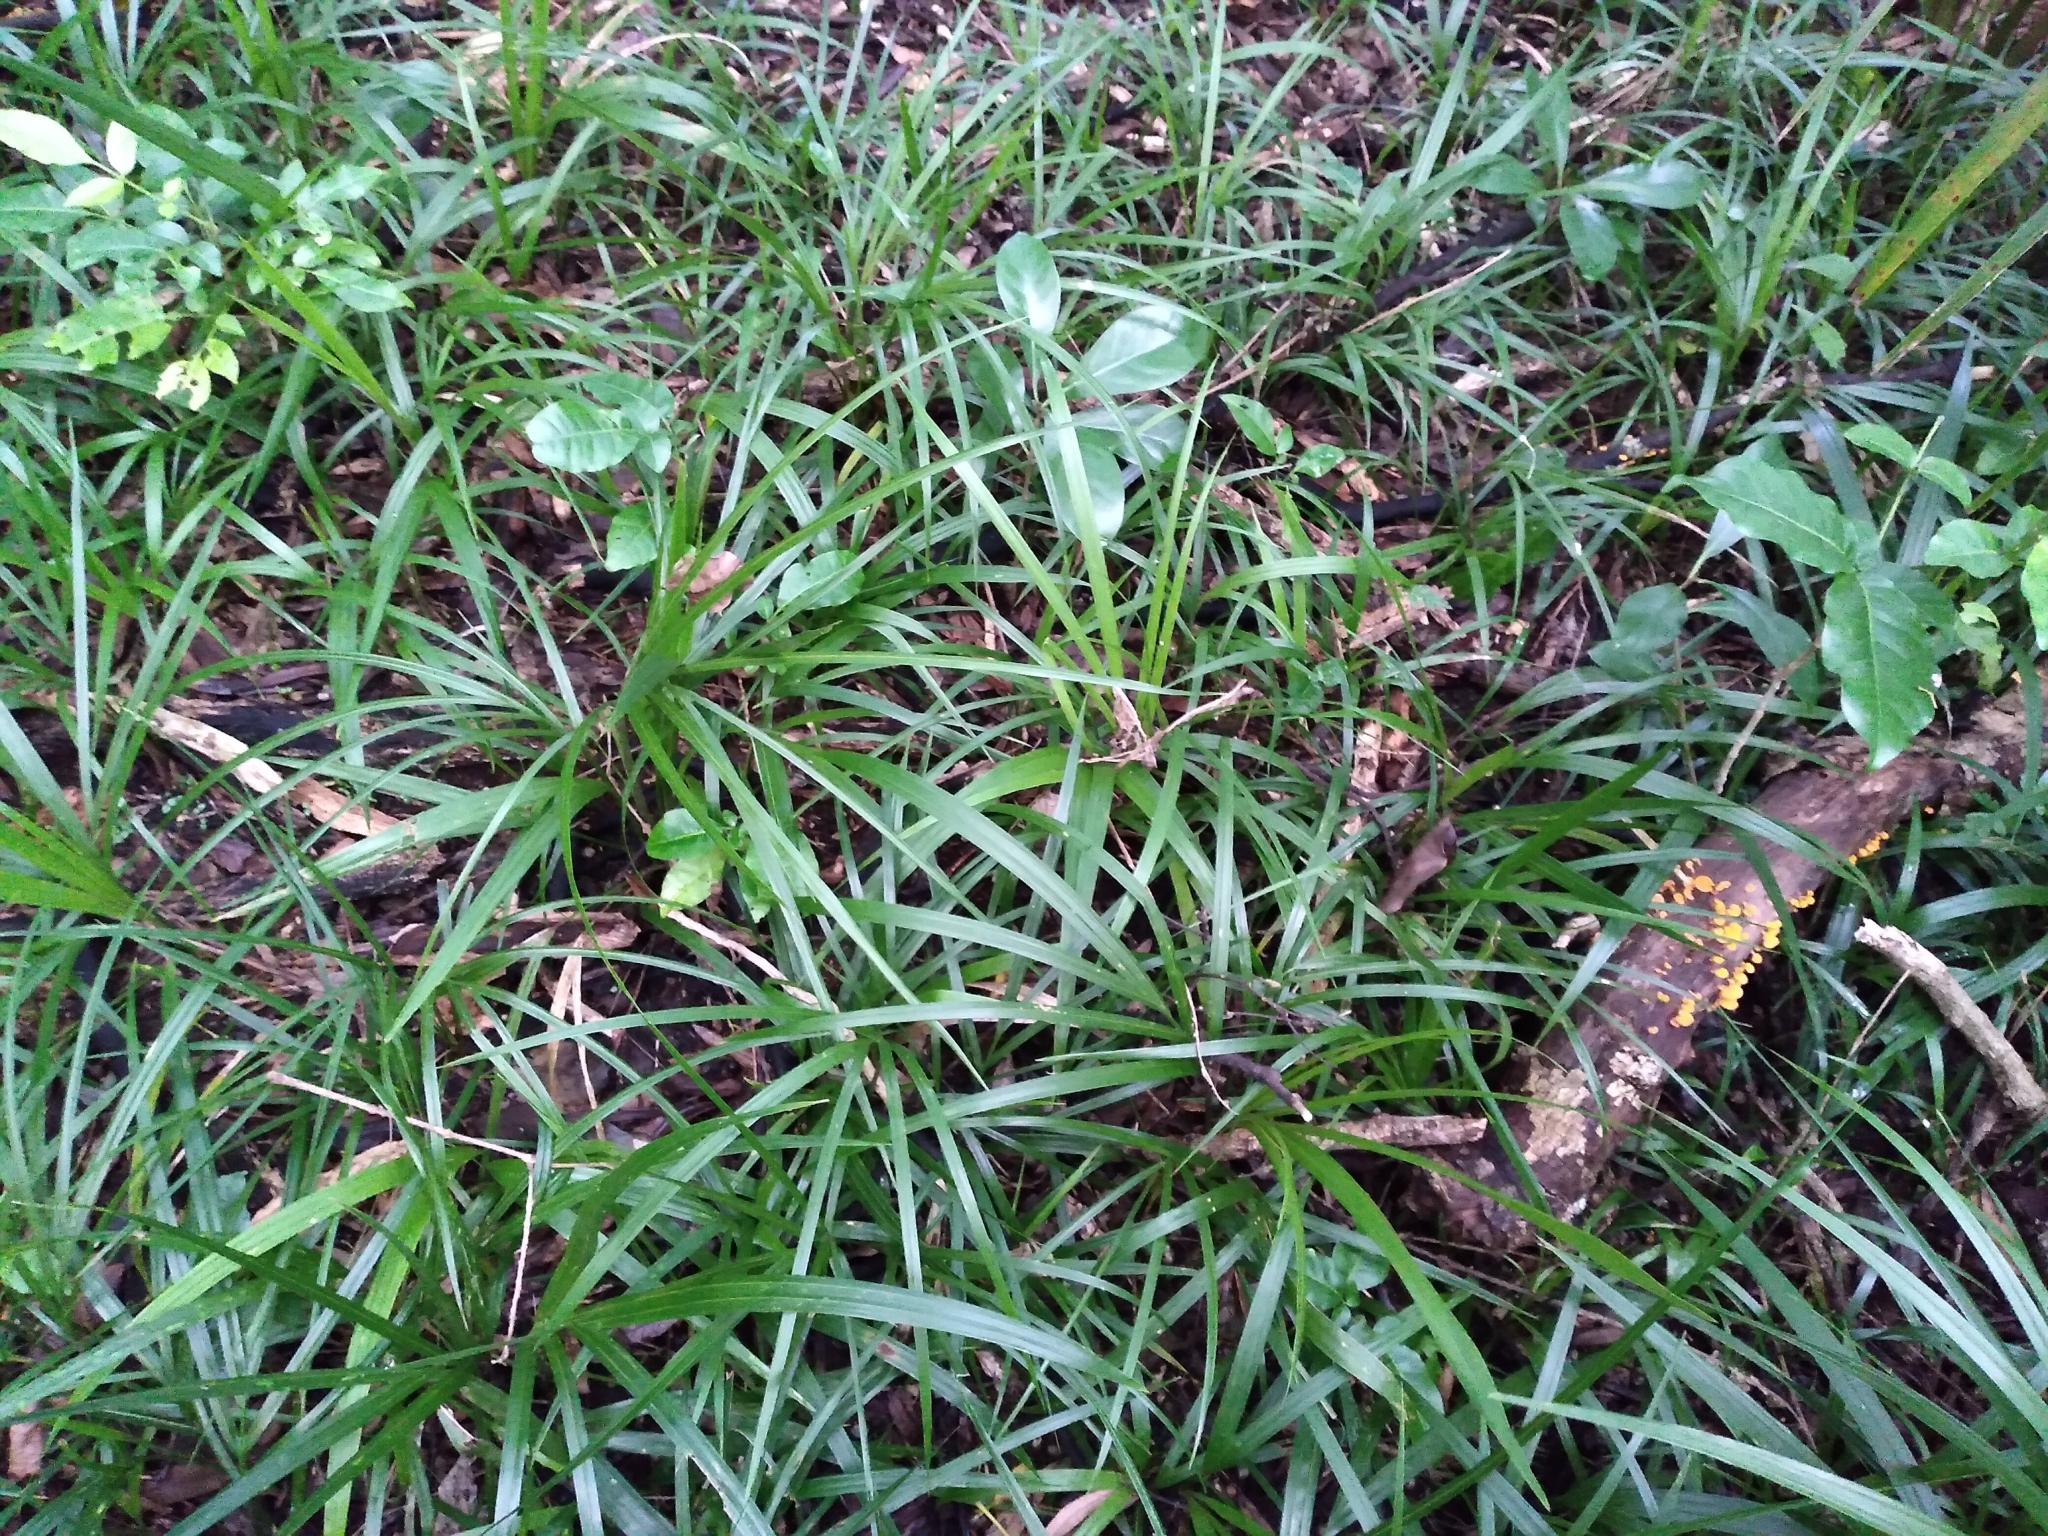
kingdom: Plantae
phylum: Tracheophyta
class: Liliopsida
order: Arecales
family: Arecaceae
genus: Rhopalostylis
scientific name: Rhopalostylis sapida
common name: Feather-duster palm
